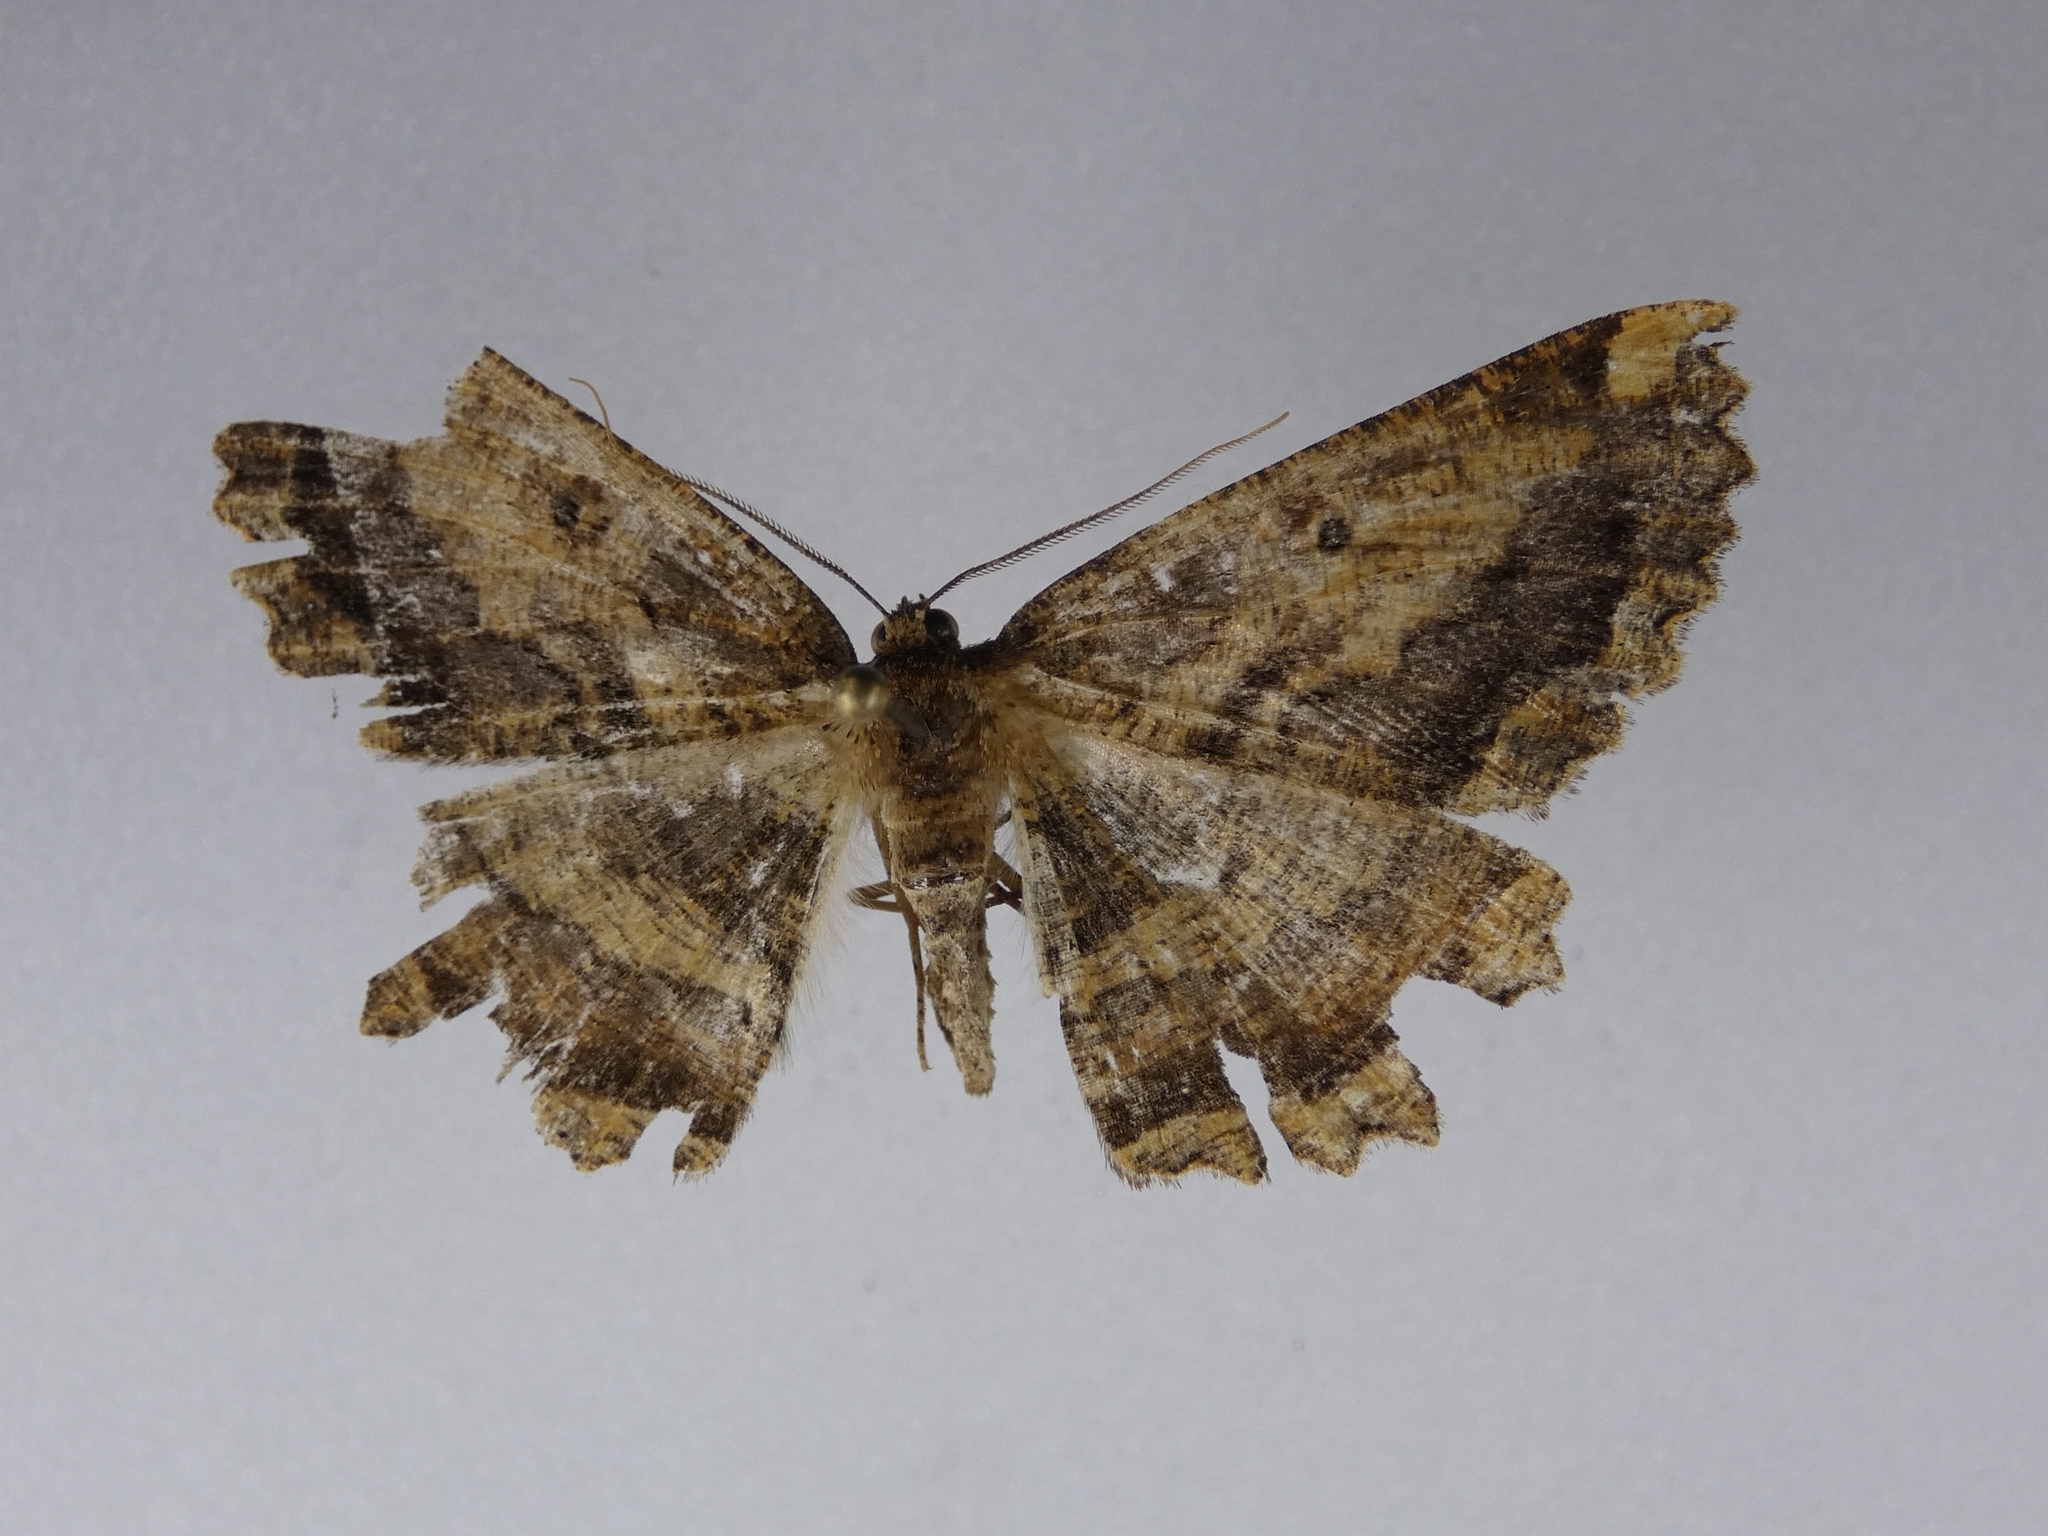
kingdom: Animalia
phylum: Arthropoda
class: Insecta
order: Lepidoptera
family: Geometridae
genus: Gellonia
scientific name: Gellonia dejectaria
